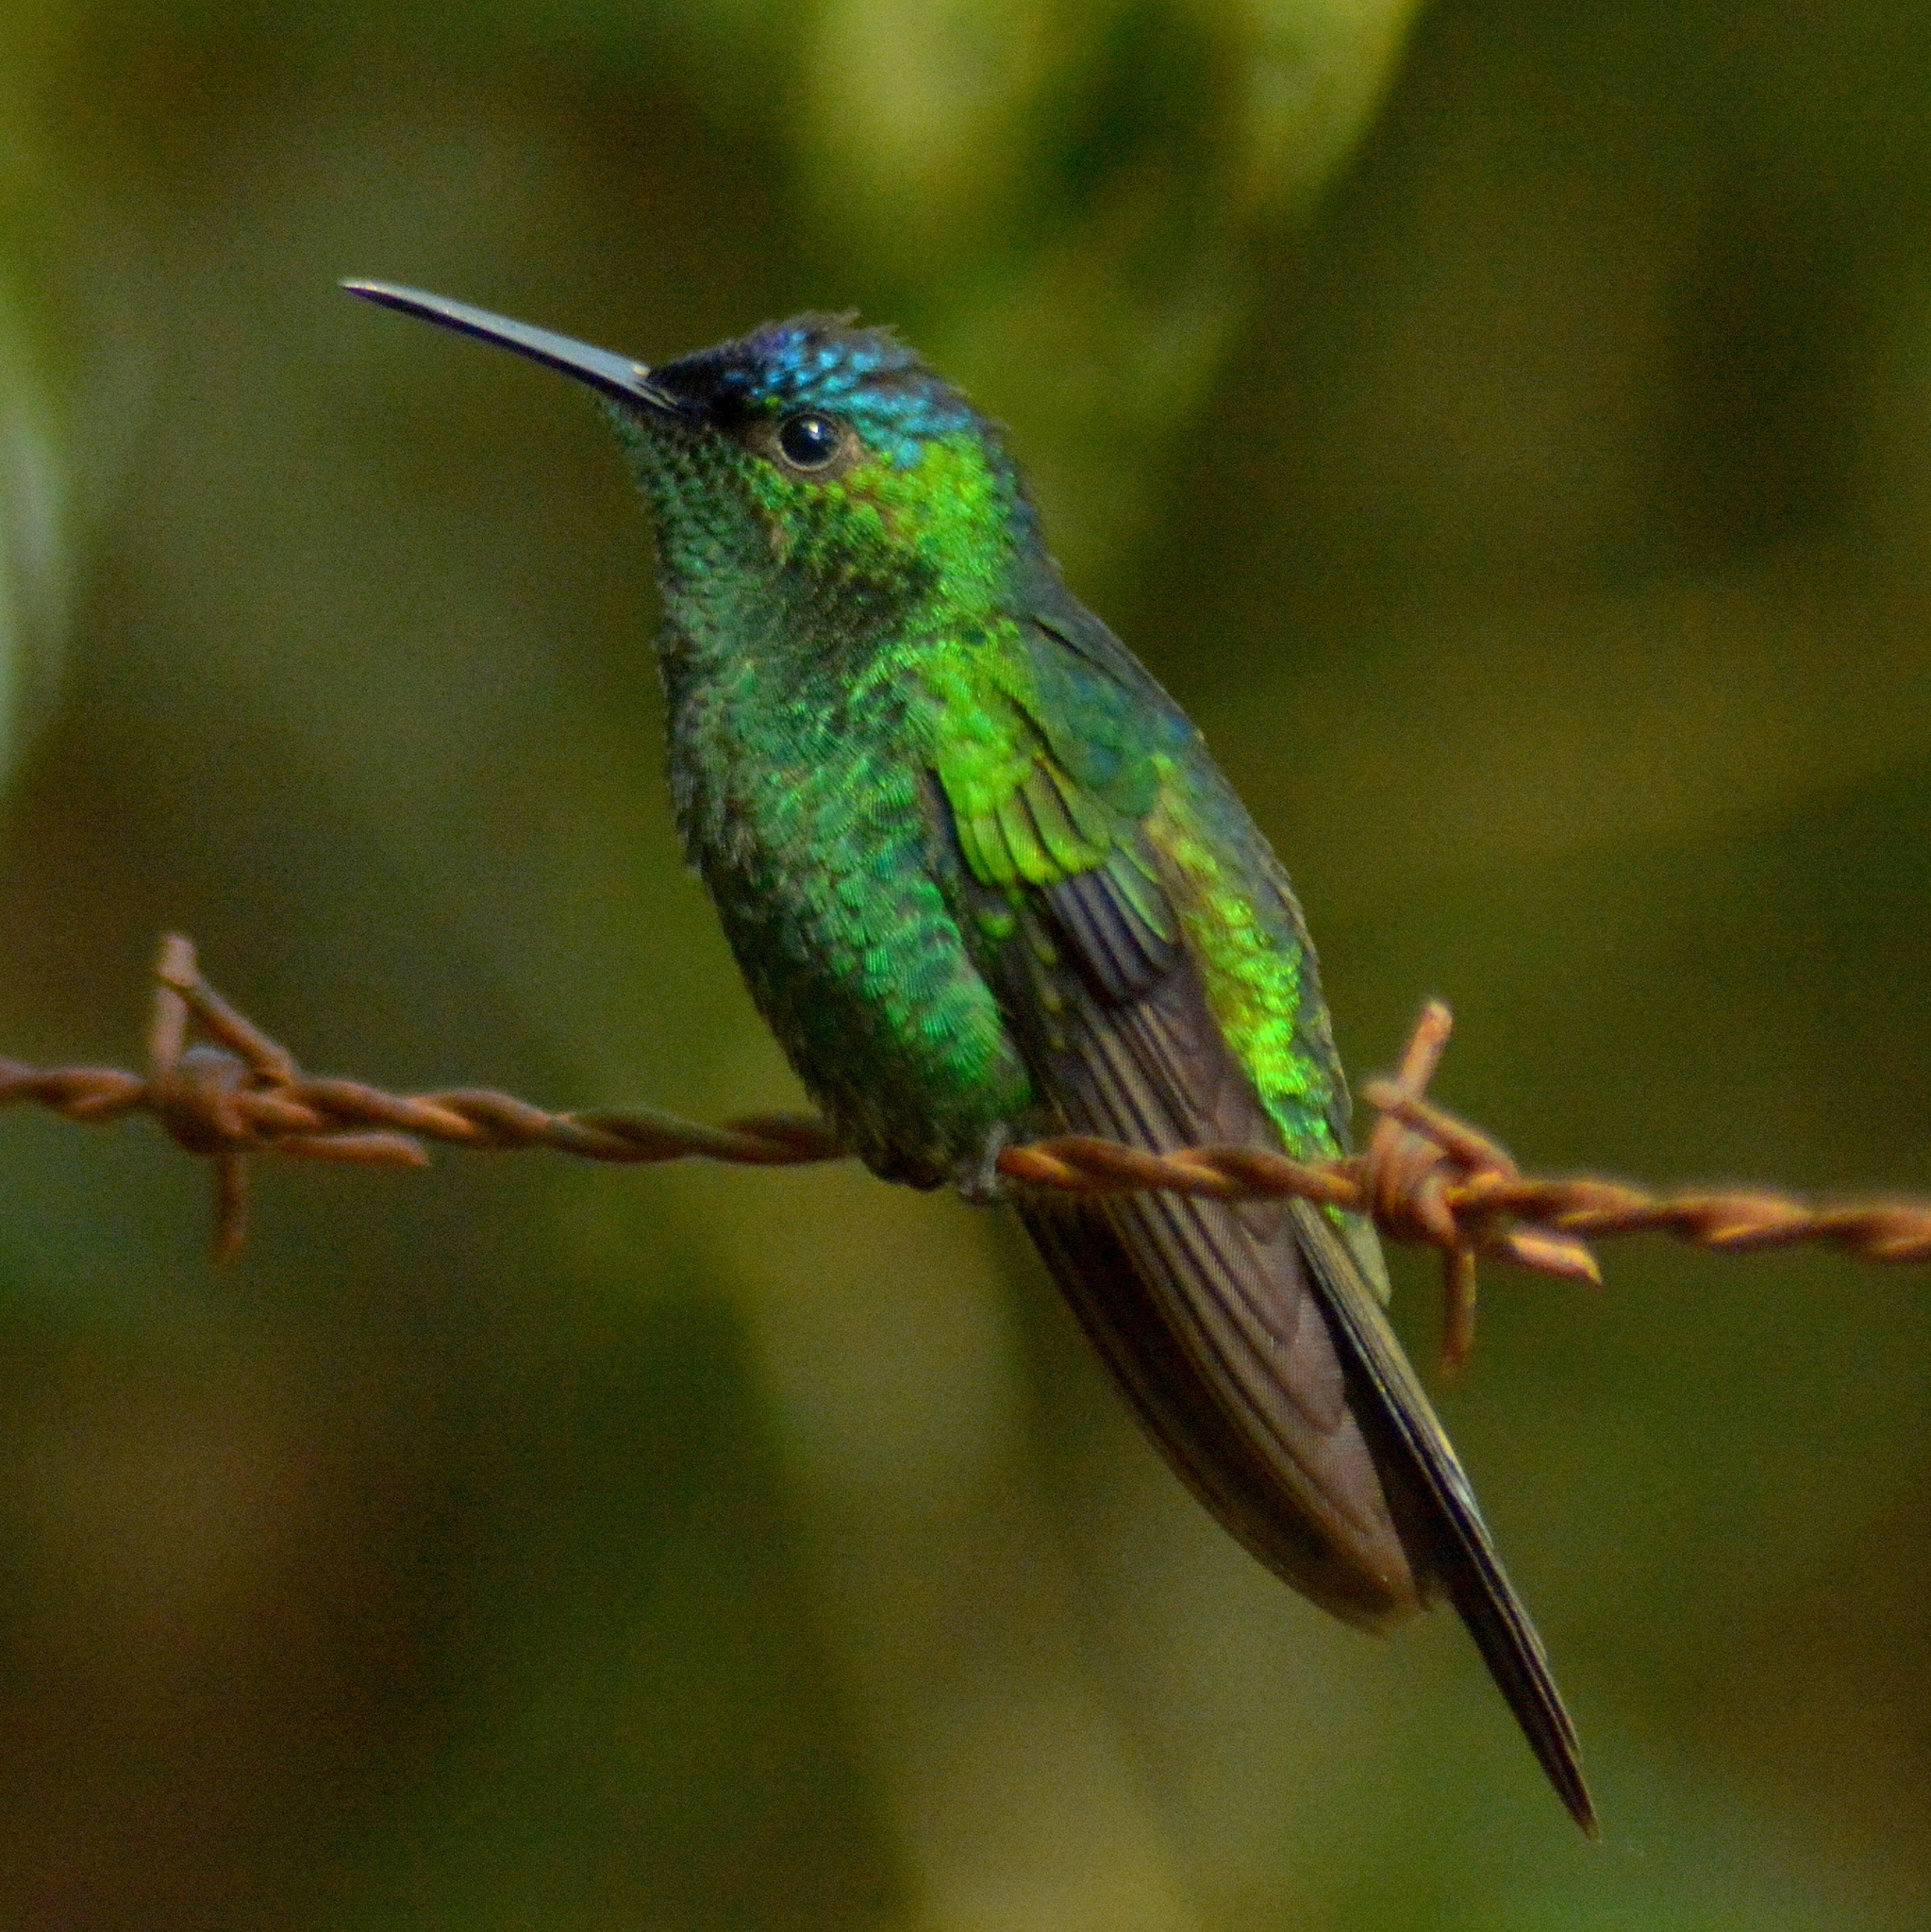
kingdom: Animalia
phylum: Chordata
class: Aves
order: Apodiformes
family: Trochilidae
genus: Thalurania
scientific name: Thalurania glaucopis
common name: Violet-capped woodnymph
